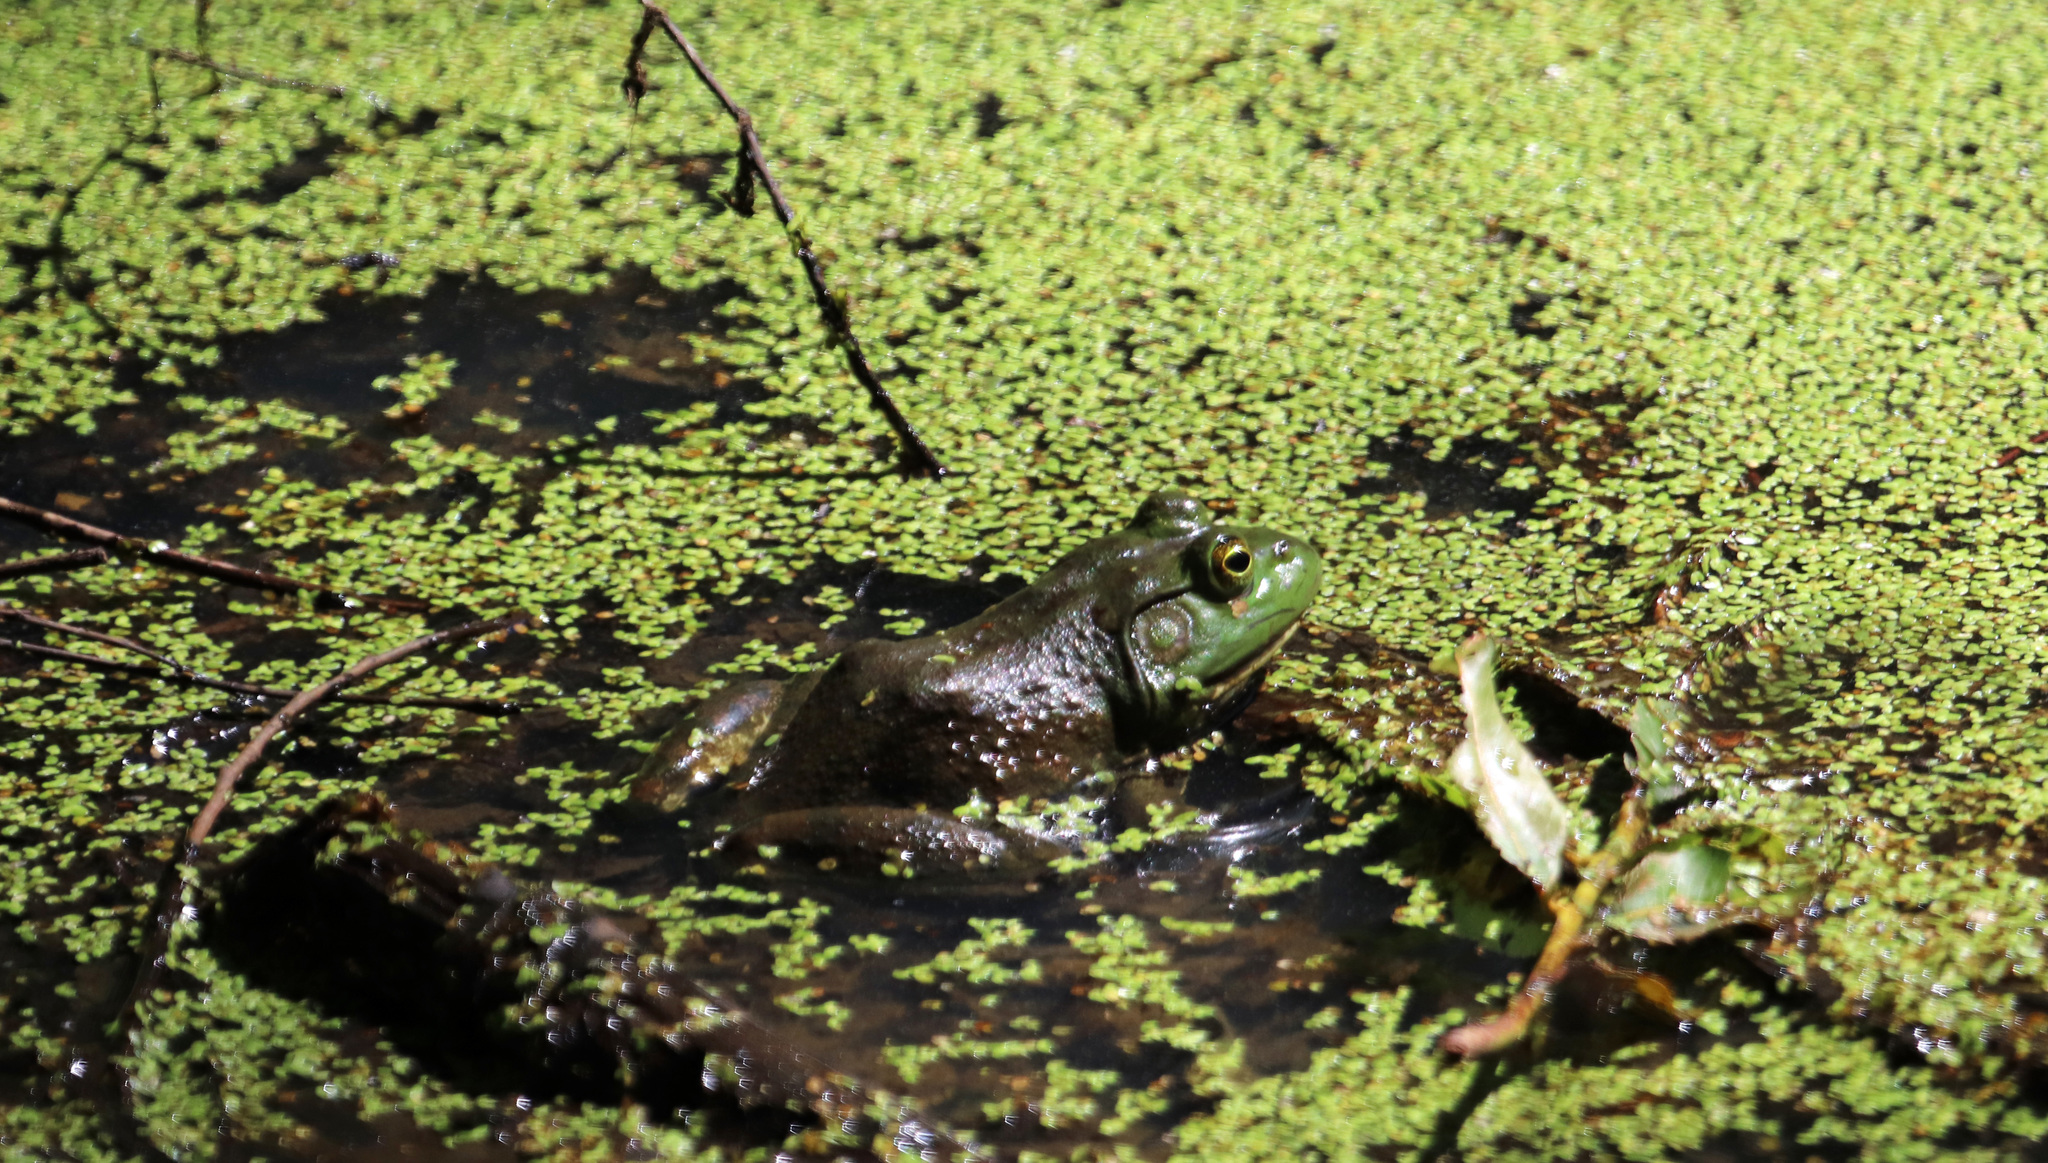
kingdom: Animalia
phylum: Chordata
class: Amphibia
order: Anura
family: Ranidae
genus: Lithobates
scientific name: Lithobates catesbeianus
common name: American bullfrog
